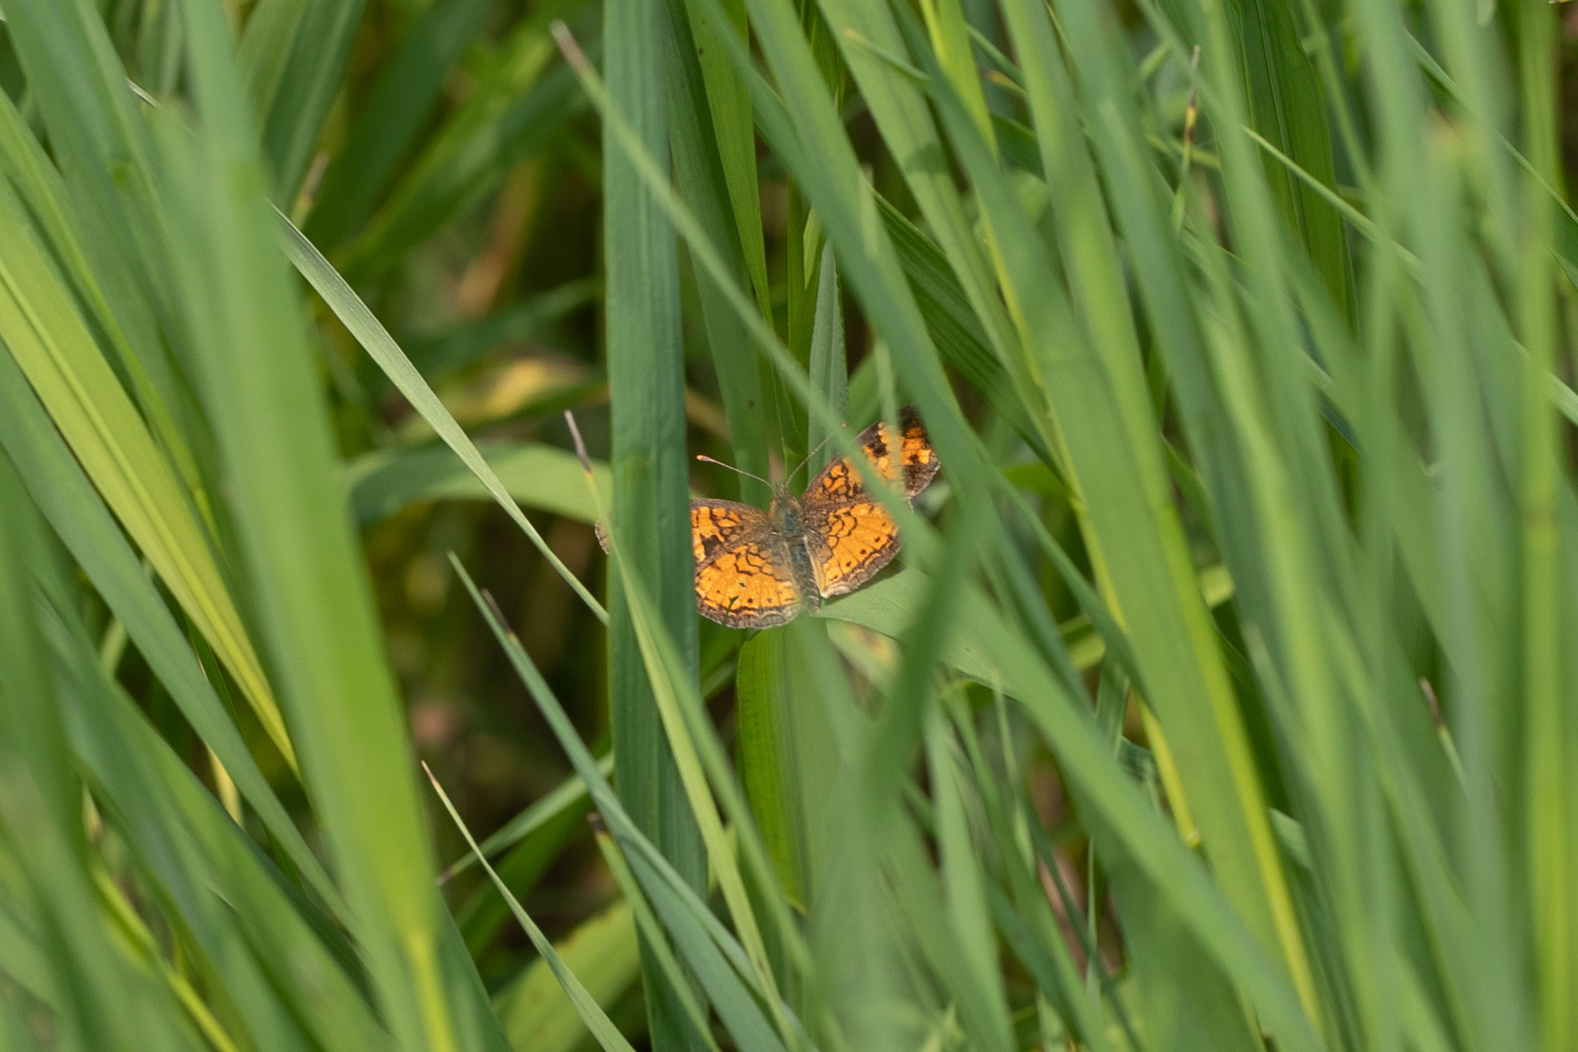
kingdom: Animalia
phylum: Arthropoda
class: Insecta
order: Lepidoptera
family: Nymphalidae
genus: Phyciodes
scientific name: Phyciodes tharos
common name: Pearl crescent
